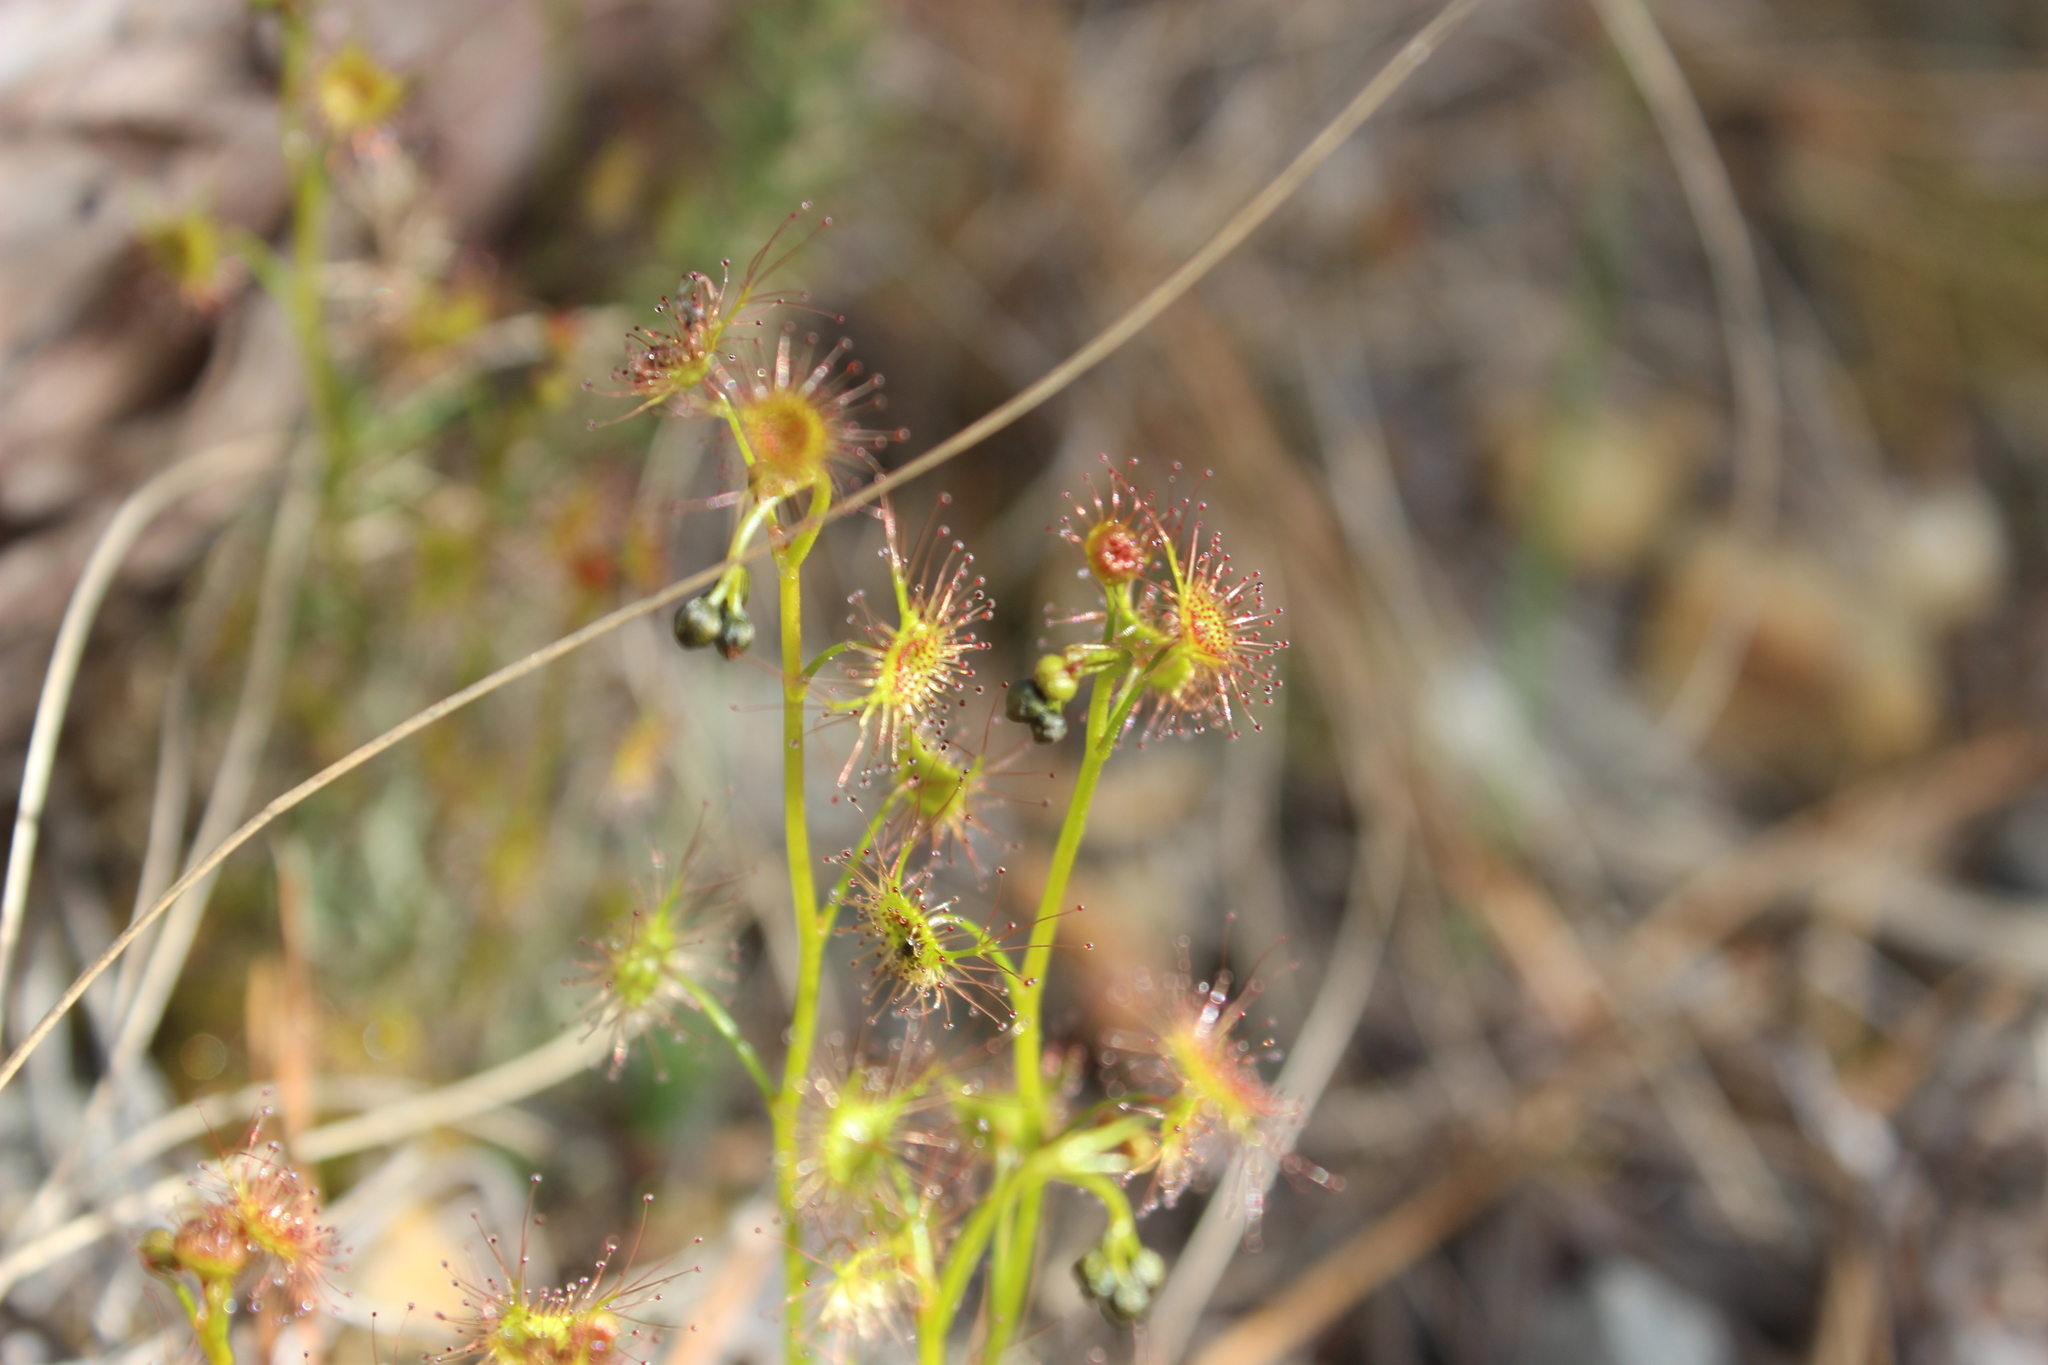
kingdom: Plantae
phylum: Tracheophyta
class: Magnoliopsida
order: Caryophyllales
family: Droseraceae
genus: Drosera
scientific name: Drosera peltata
